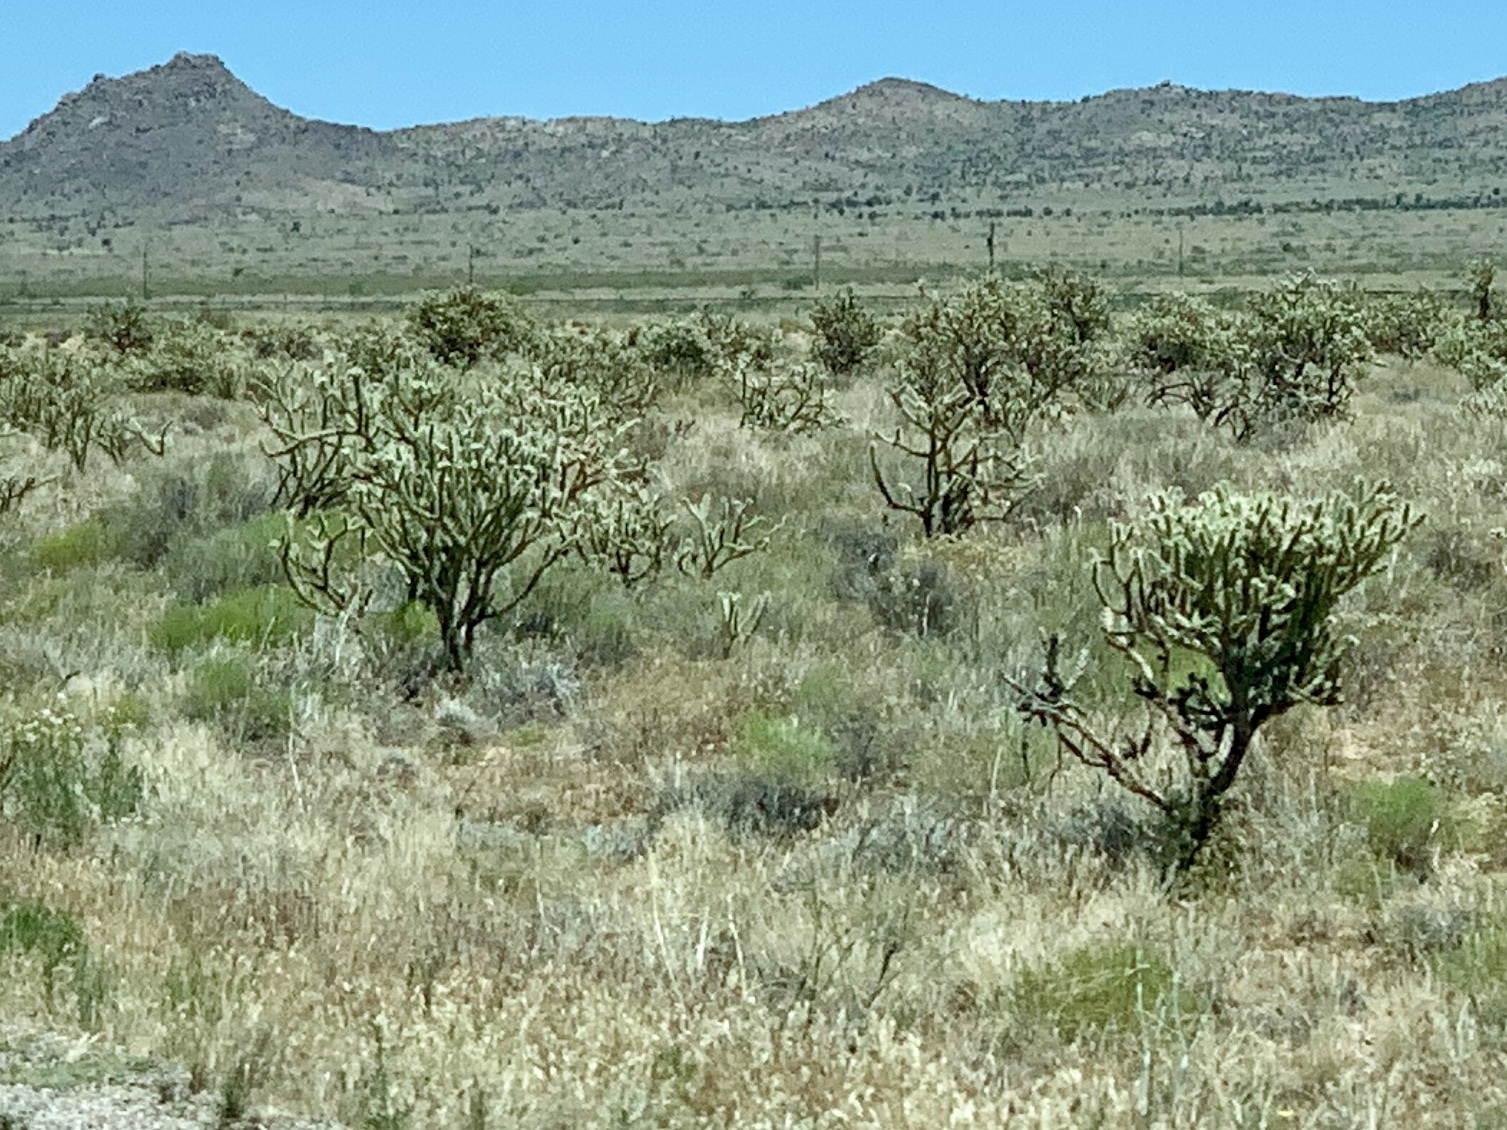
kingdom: Plantae
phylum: Tracheophyta
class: Magnoliopsida
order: Caryophyllales
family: Cactaceae
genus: Cylindropuntia
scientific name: Cylindropuntia acanthocarpa
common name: Buckhorn cholla
